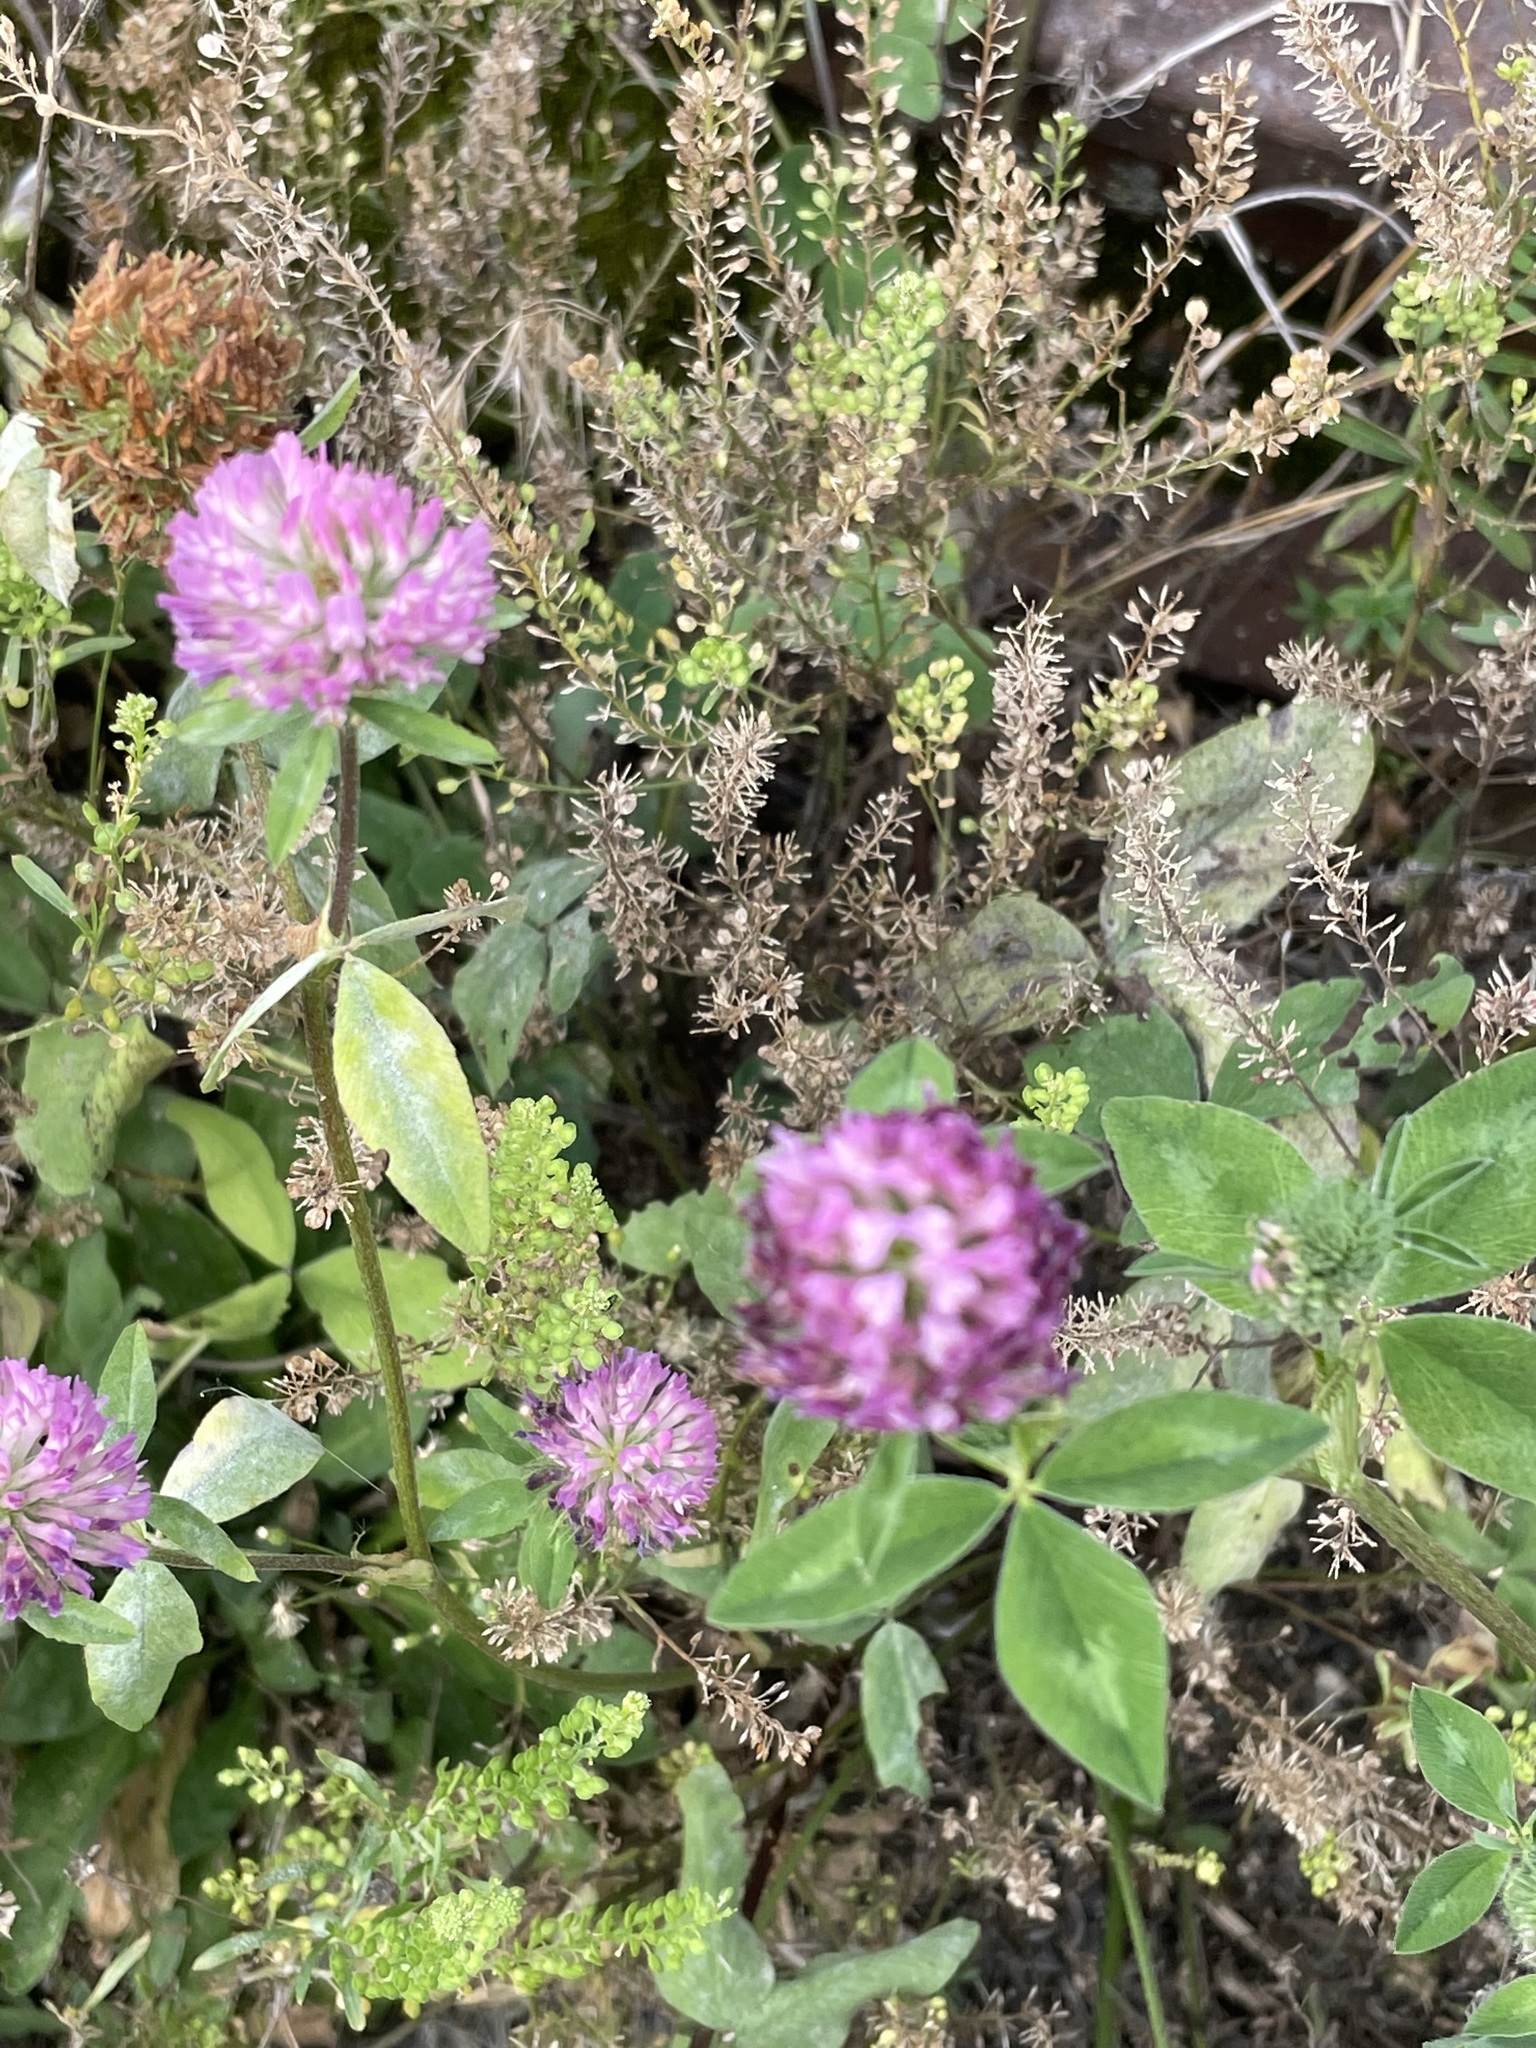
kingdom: Plantae
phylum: Tracheophyta
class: Magnoliopsida
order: Fabales
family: Fabaceae
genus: Trifolium
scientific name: Trifolium pratense
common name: Red clover
